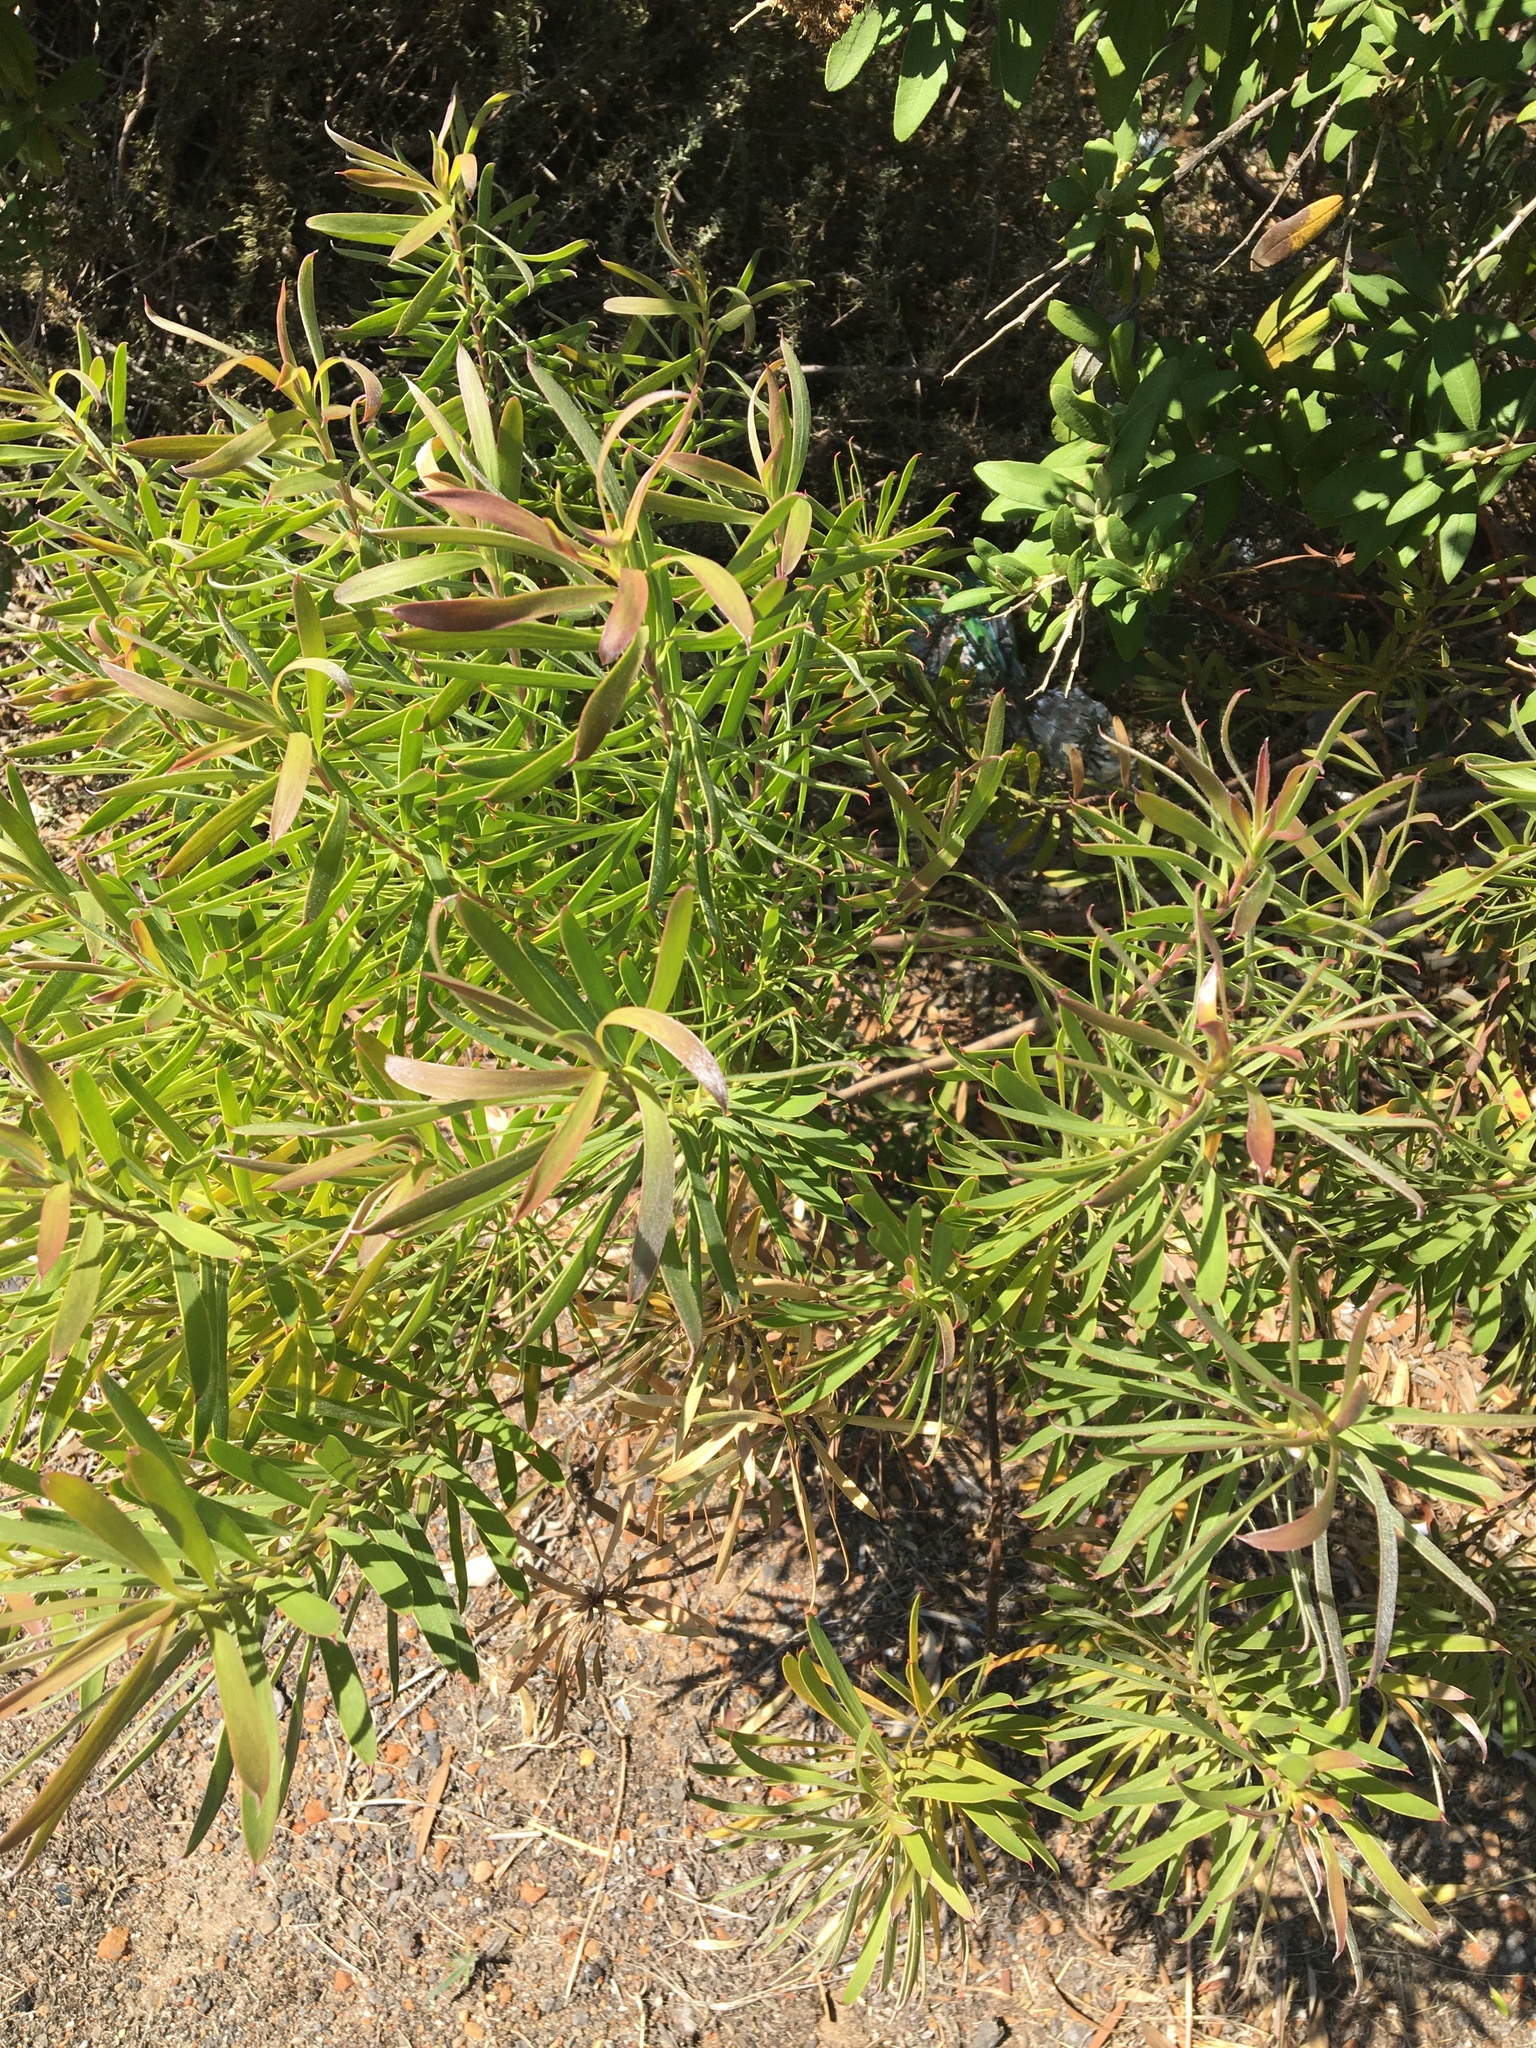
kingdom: Plantae
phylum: Tracheophyta
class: Magnoliopsida
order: Proteales
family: Proteaceae
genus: Leucadendron
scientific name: Leucadendron coniferum
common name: Dune conebush
